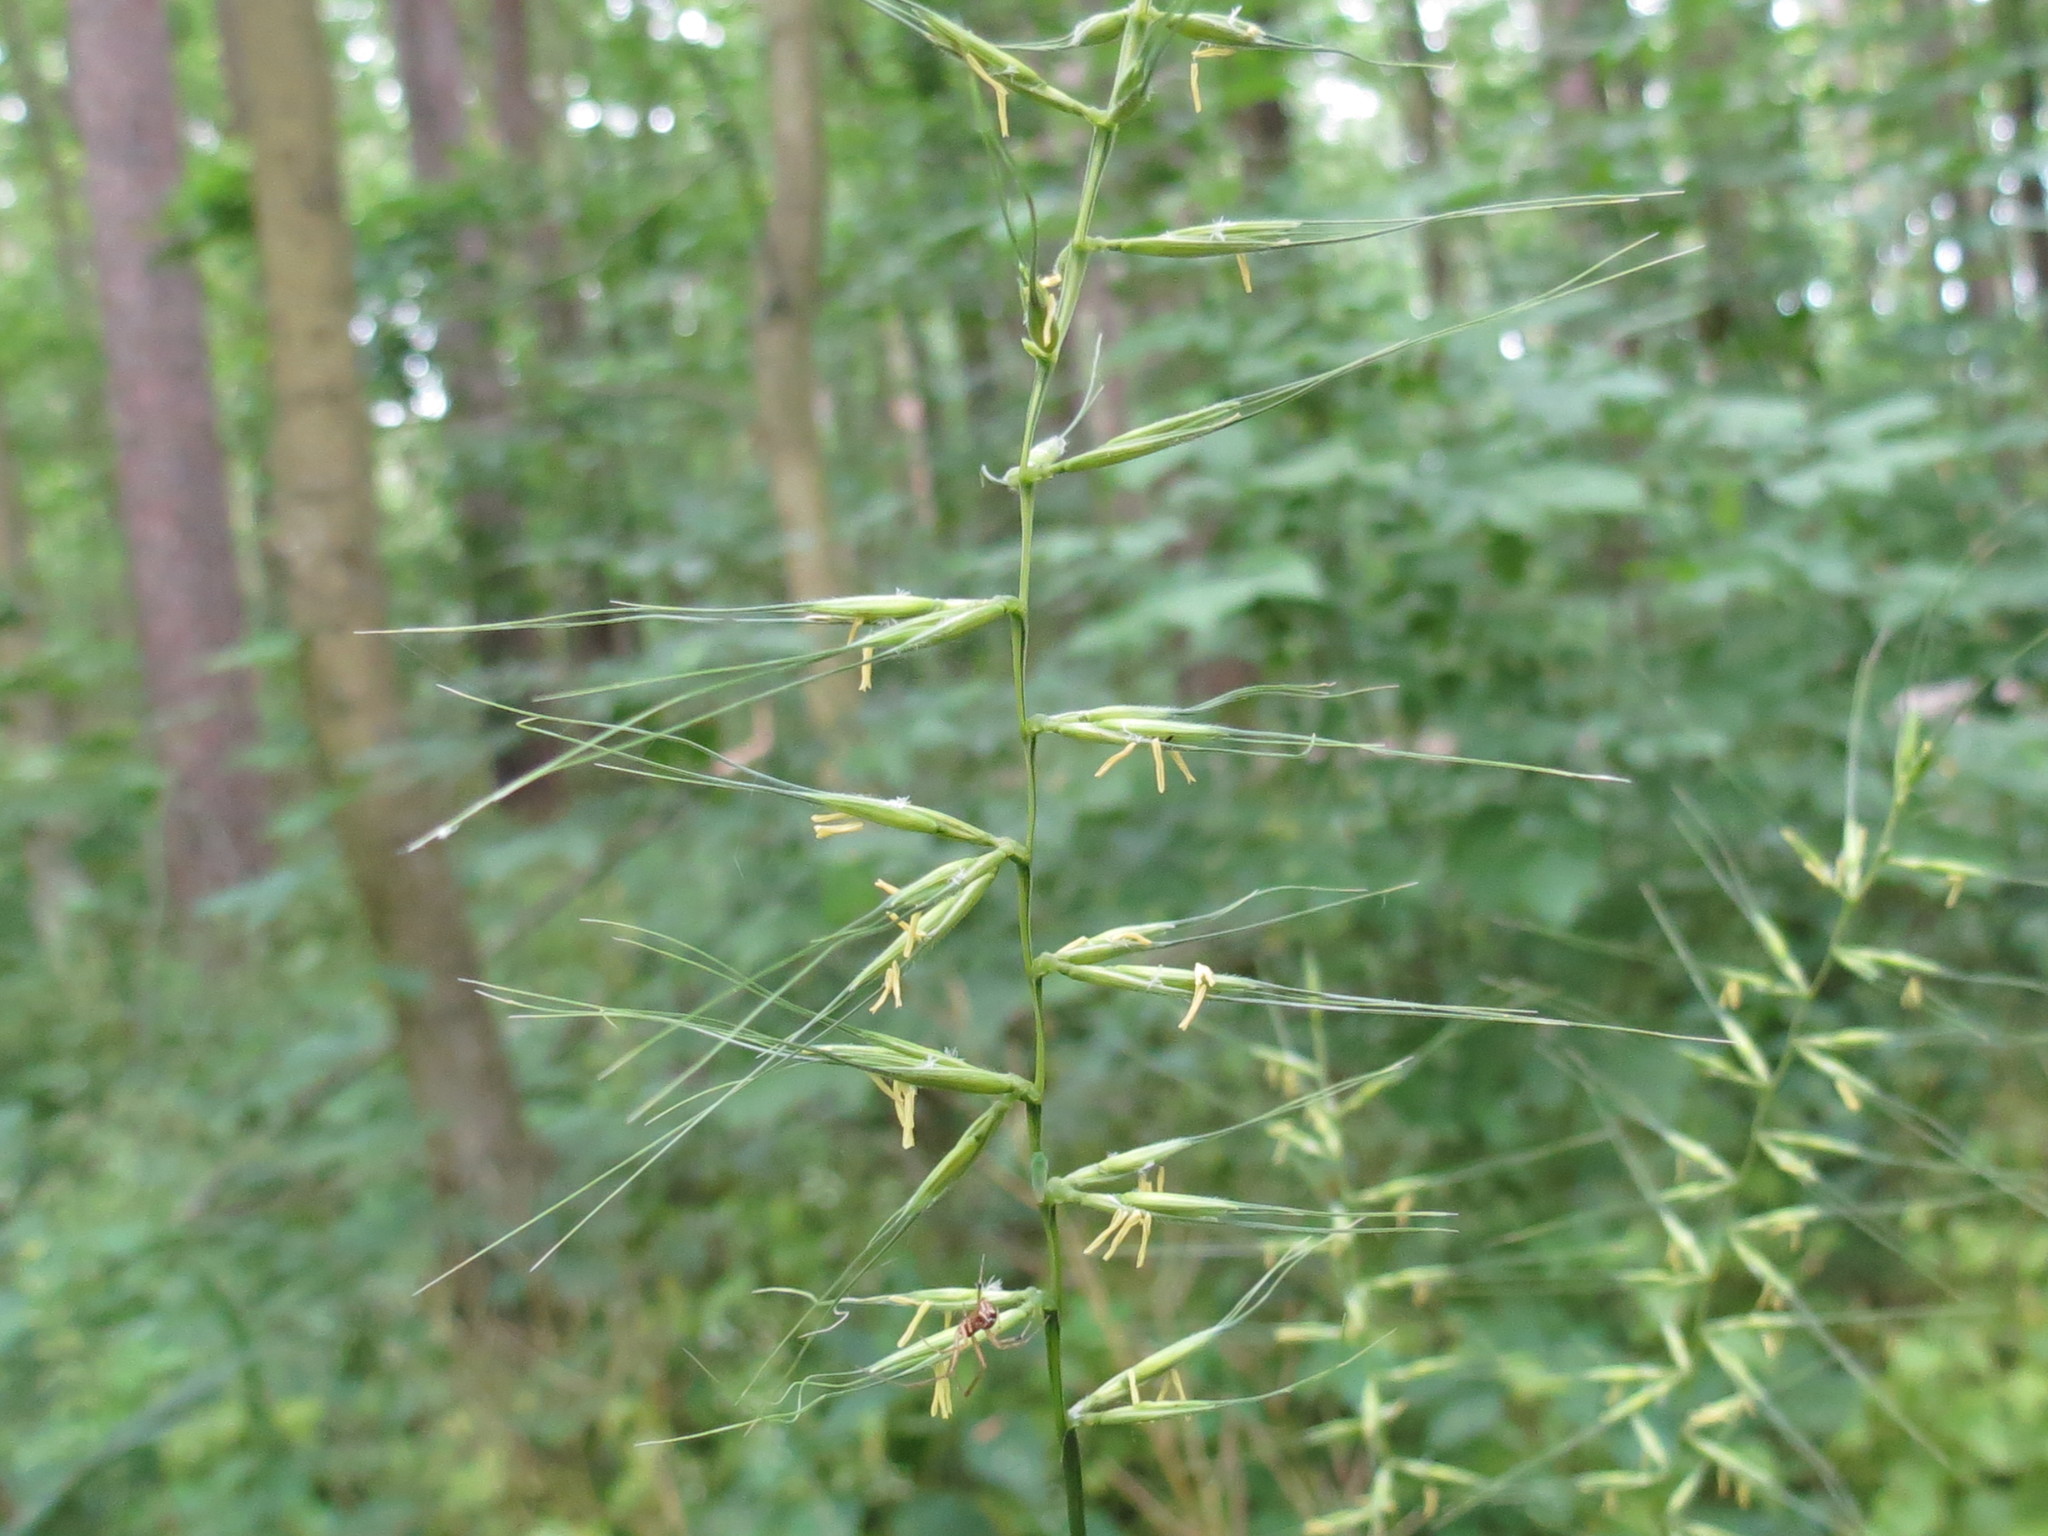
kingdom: Plantae
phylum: Tracheophyta
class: Liliopsida
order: Poales
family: Poaceae
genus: Elymus
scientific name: Elymus hystrix
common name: Bottlebrush grass
